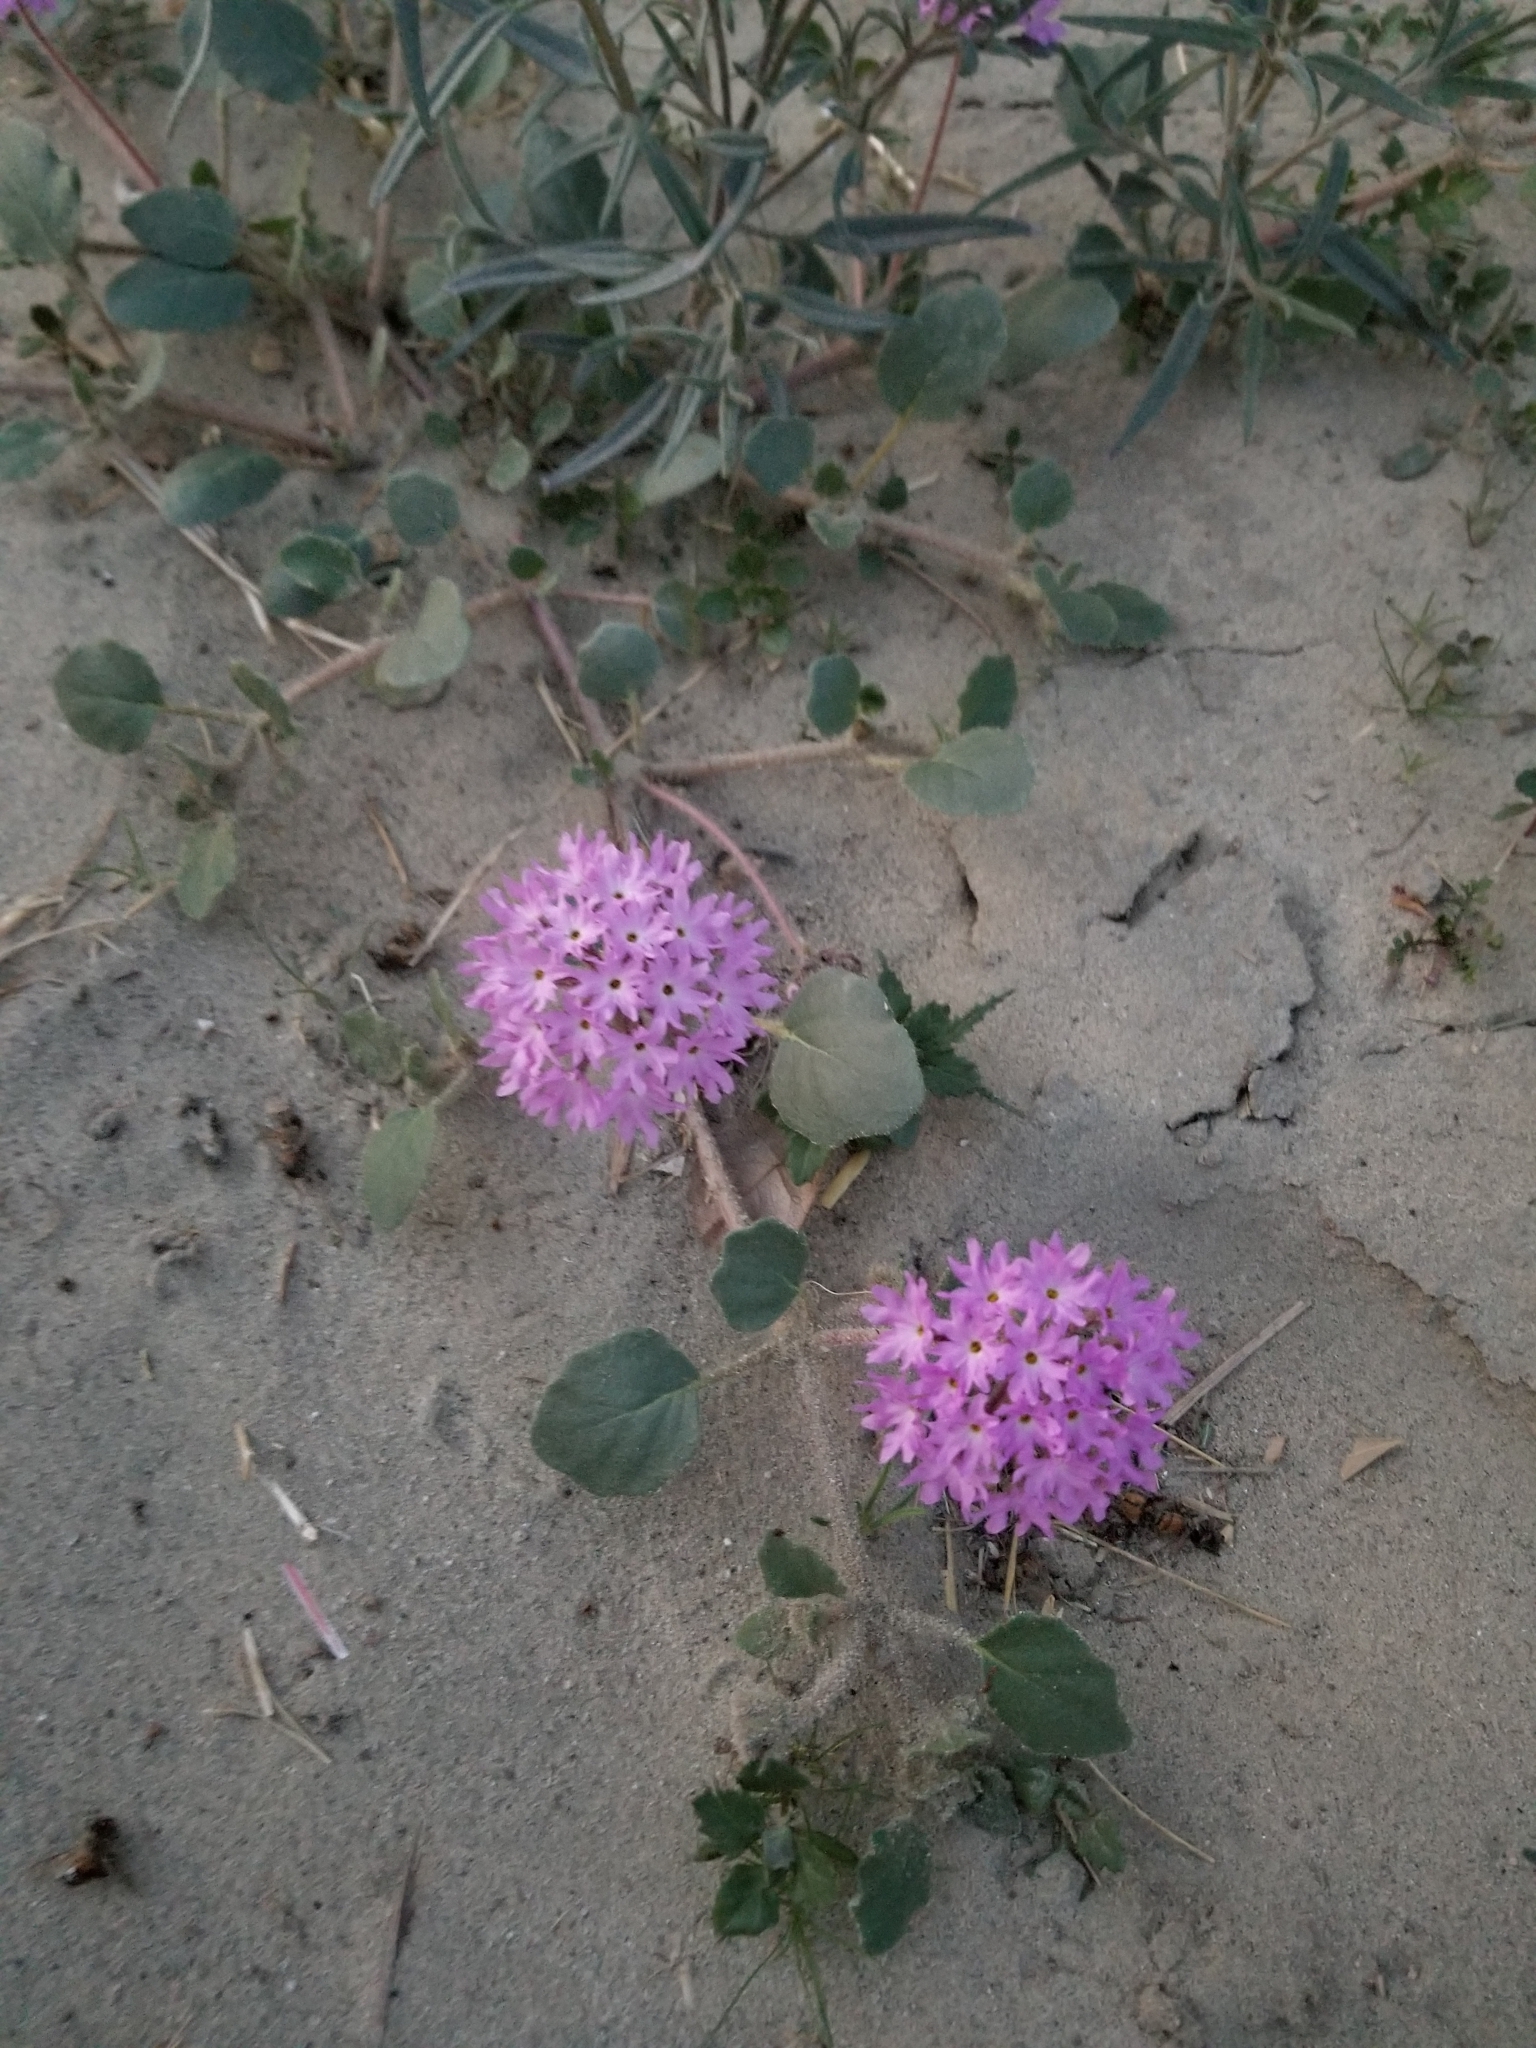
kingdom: Plantae
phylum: Tracheophyta
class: Magnoliopsida
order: Caryophyllales
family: Nyctaginaceae
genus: Abronia
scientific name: Abronia villosa
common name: Desert sand-verbena
